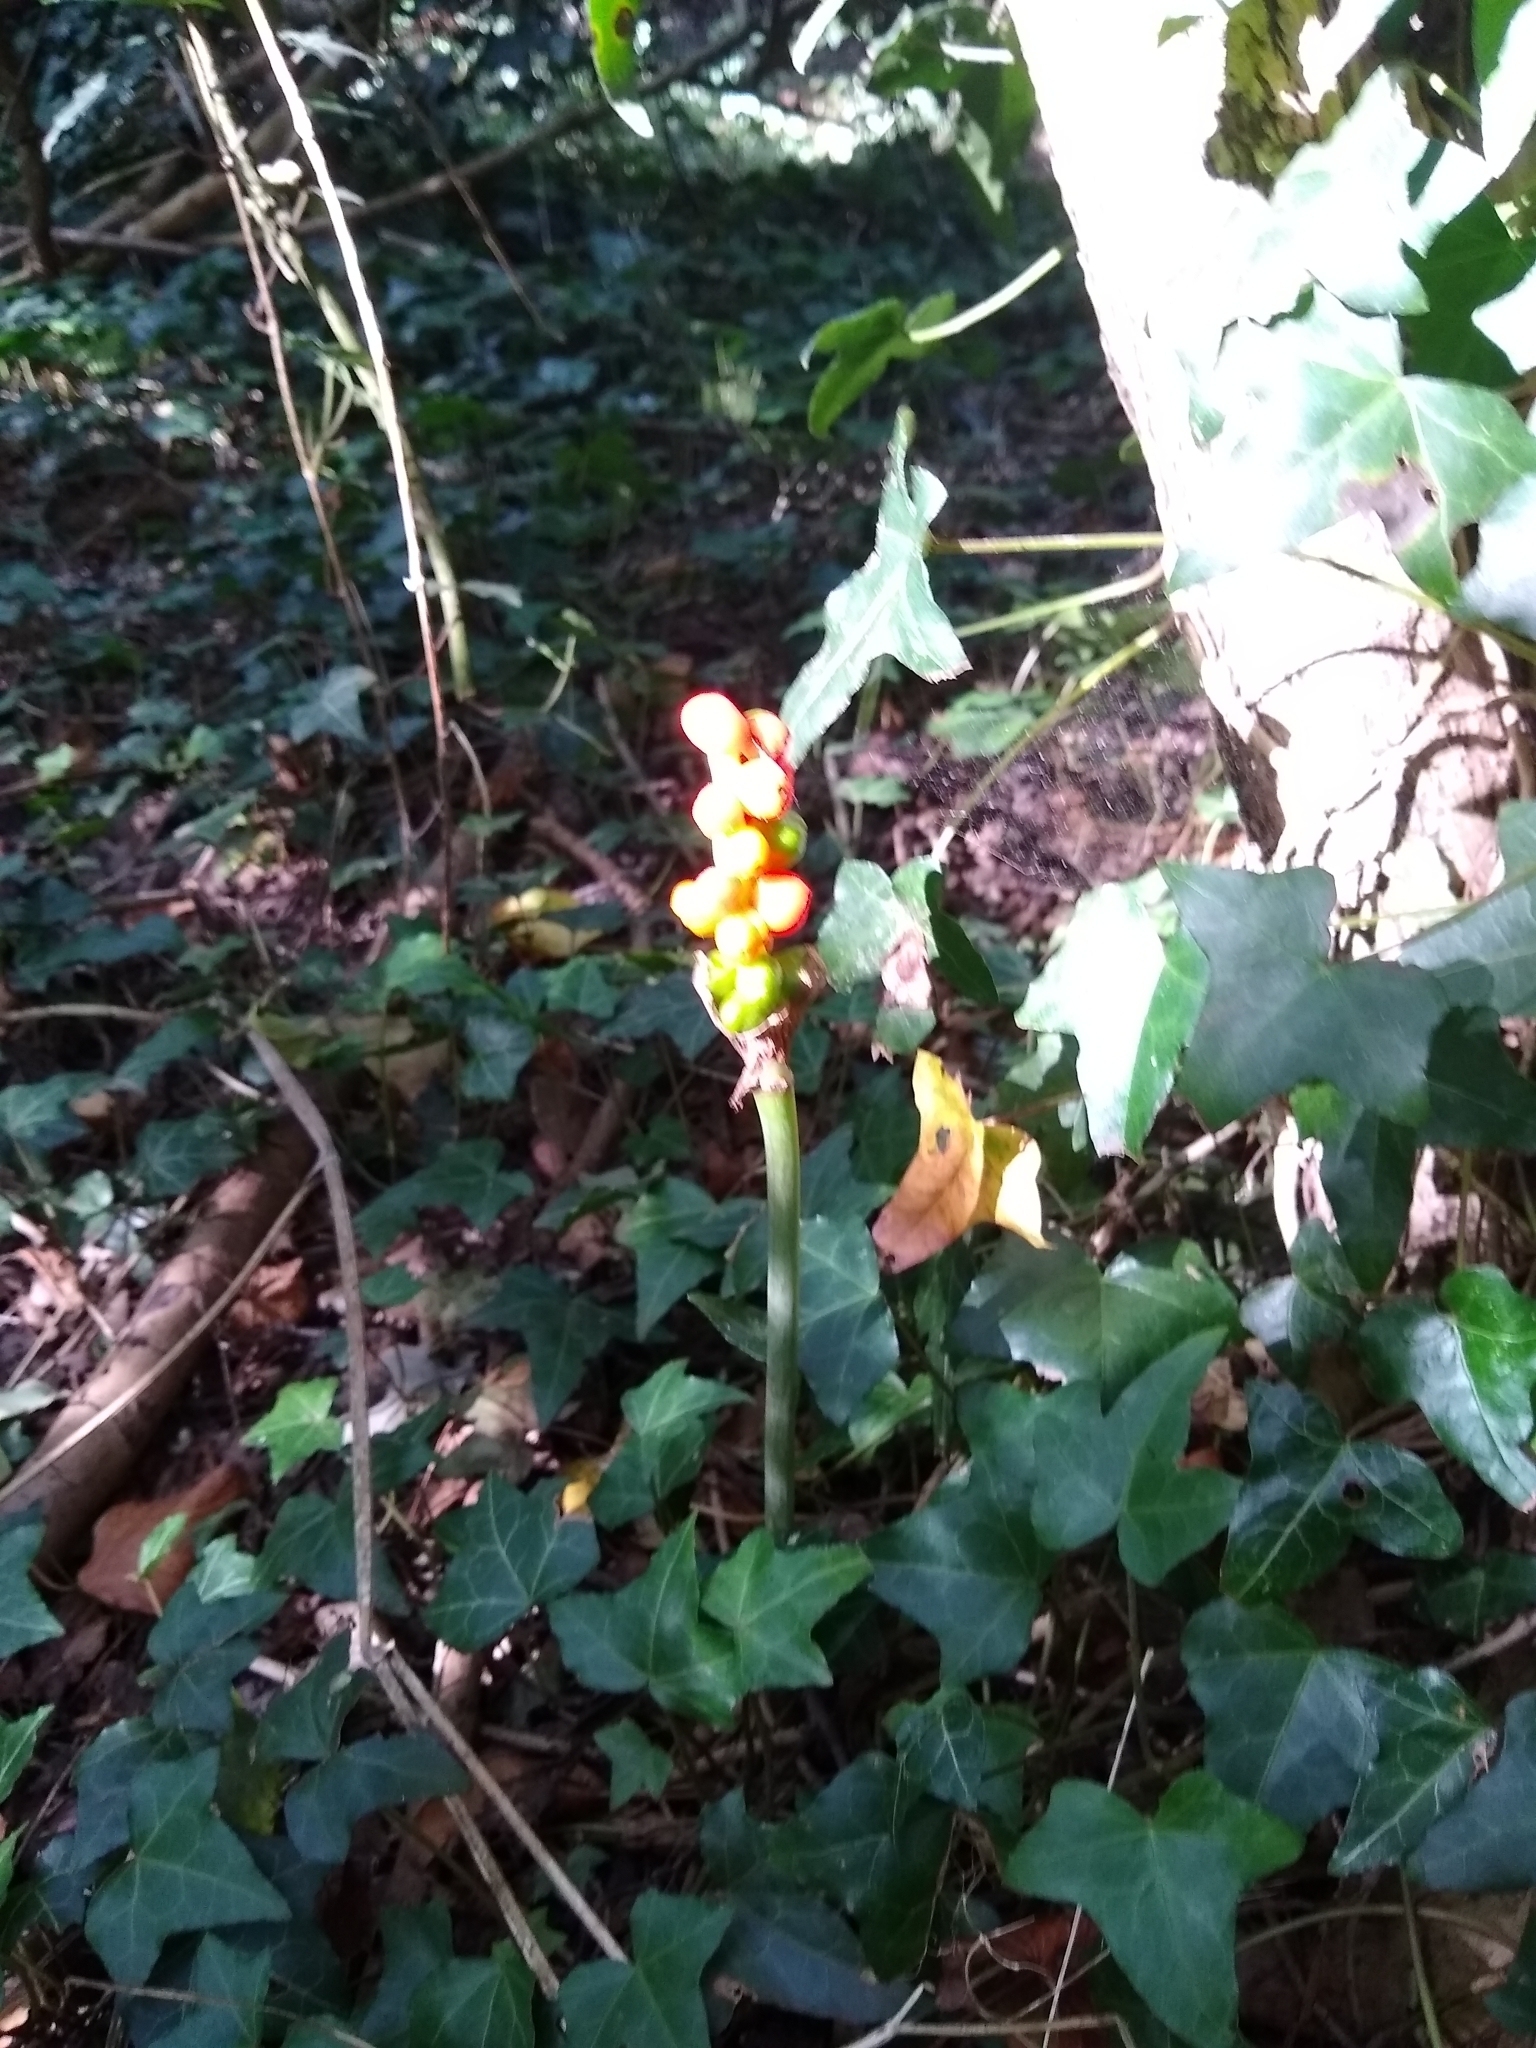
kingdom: Plantae
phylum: Tracheophyta
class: Liliopsida
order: Alismatales
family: Araceae
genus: Arum
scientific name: Arum maculatum
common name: Lords-and-ladies
